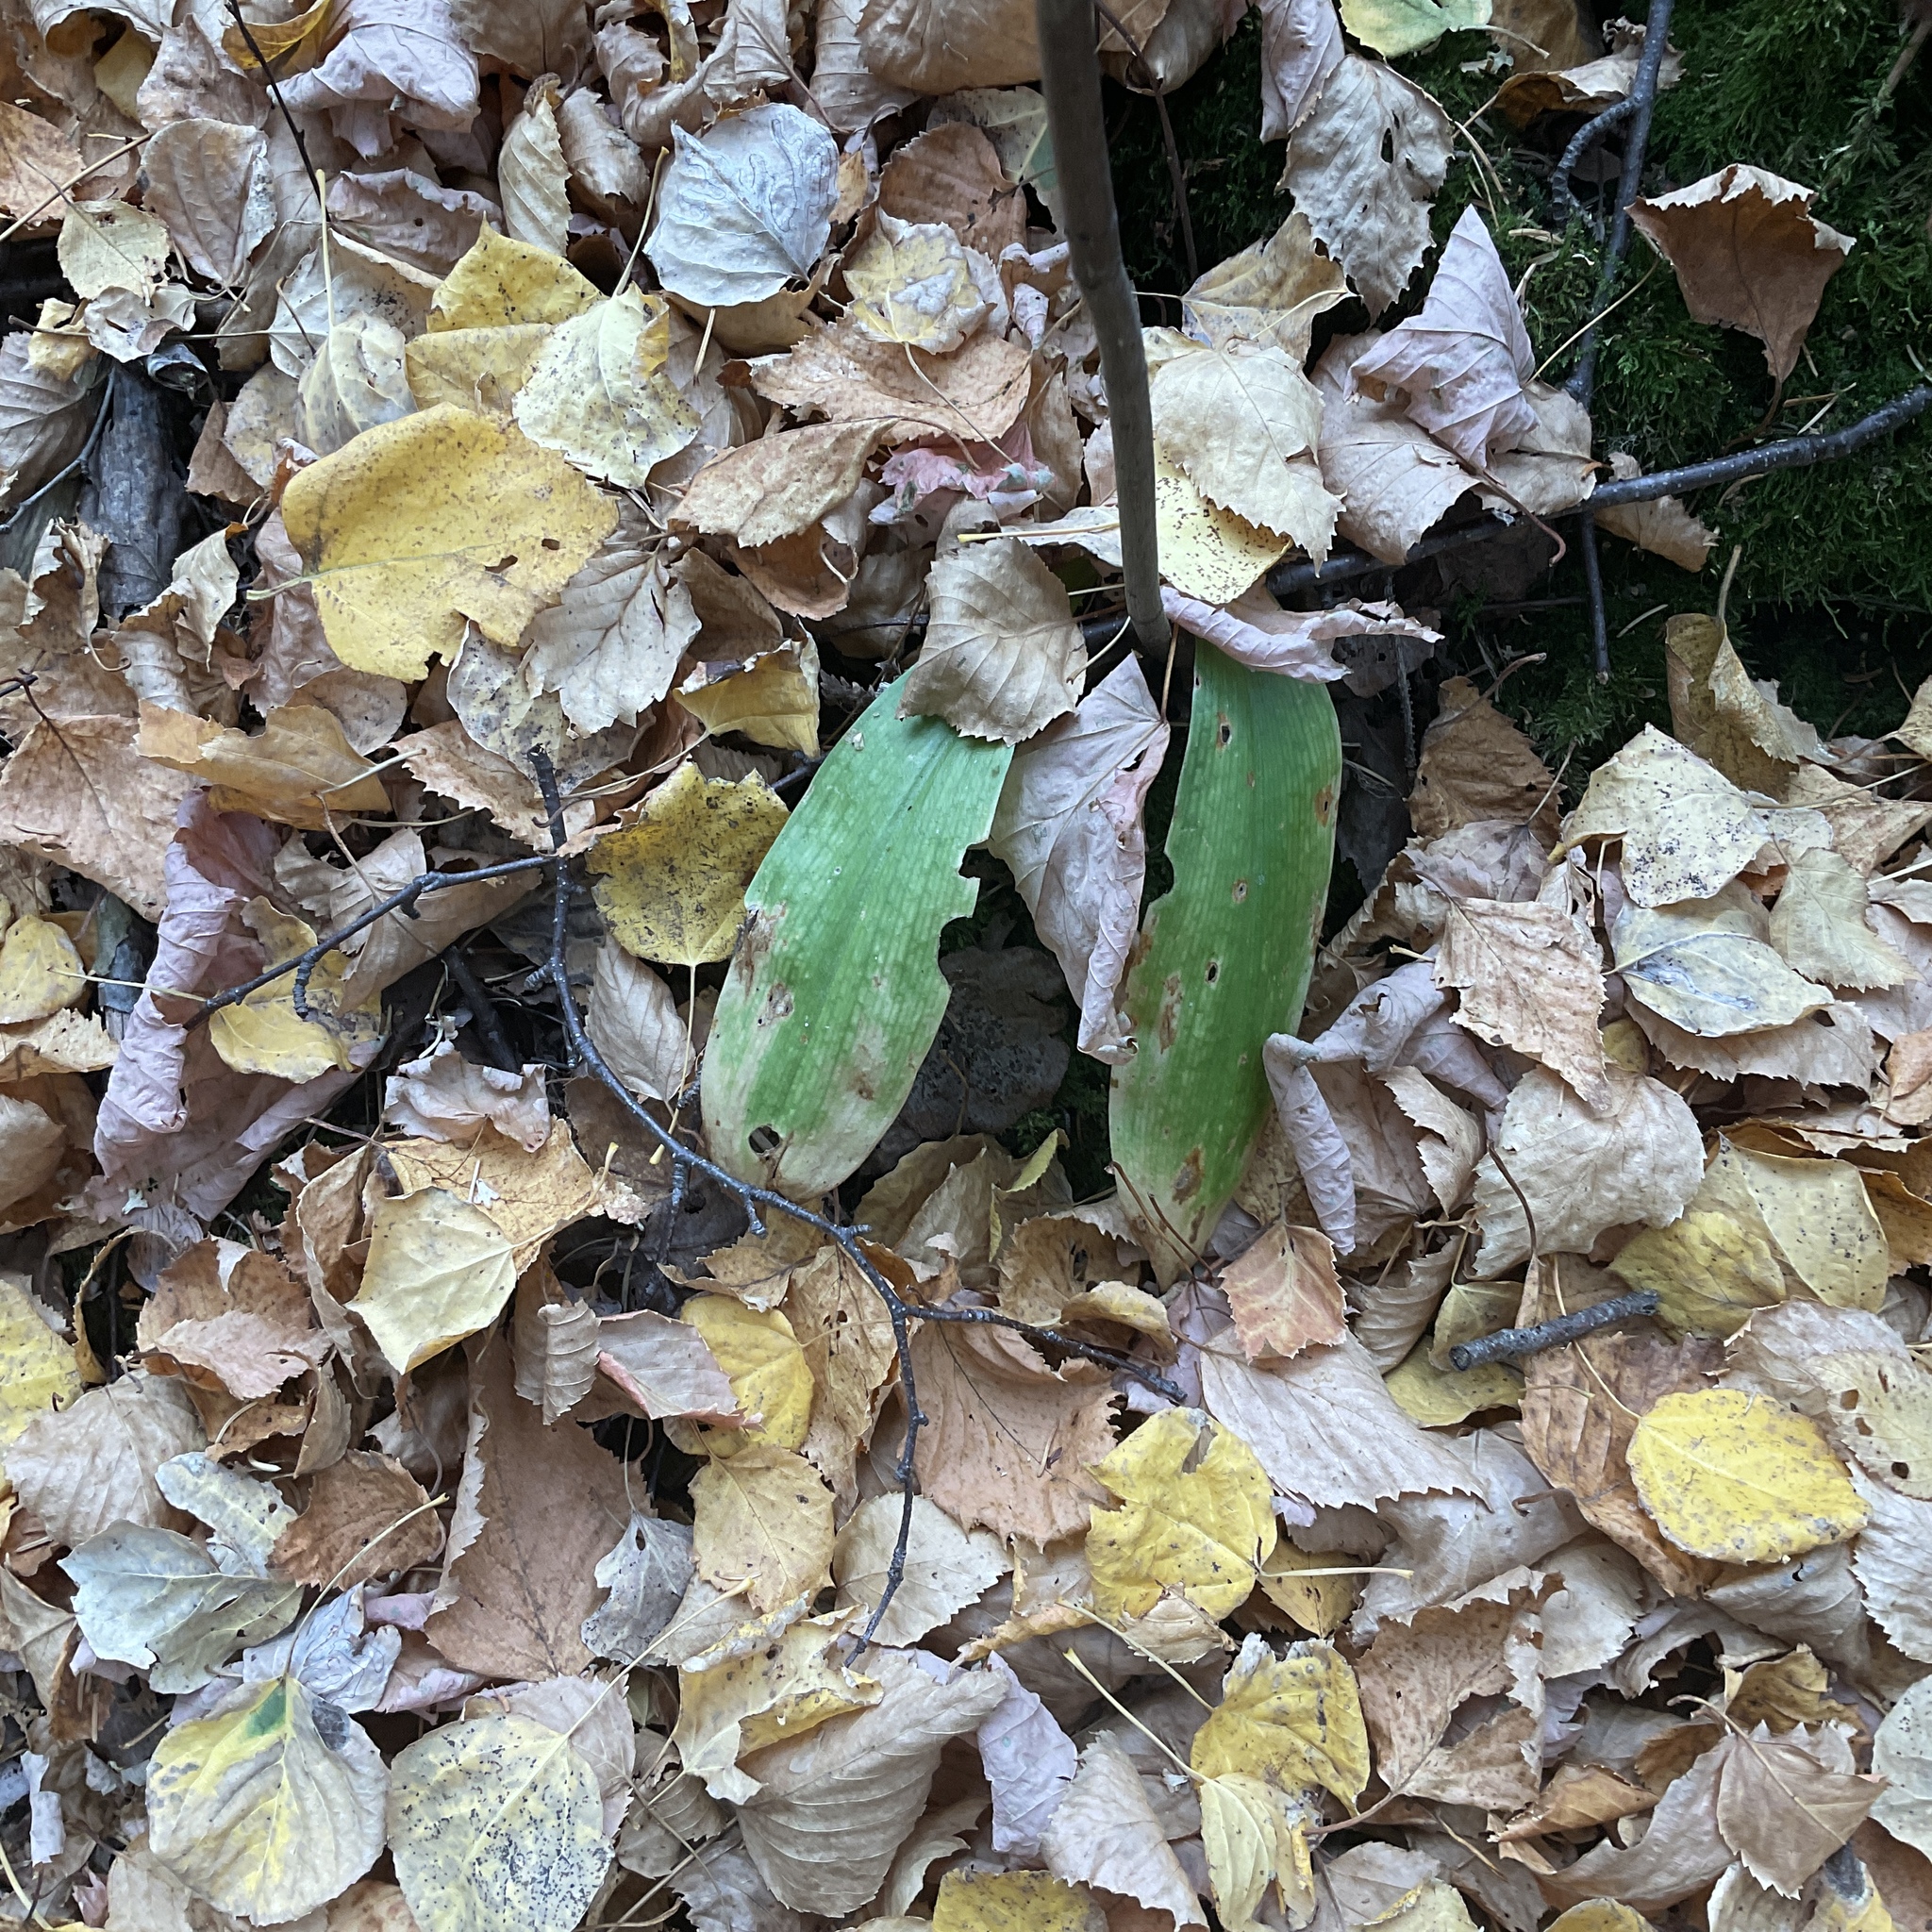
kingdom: Plantae
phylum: Tracheophyta
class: Liliopsida
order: Liliales
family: Liliaceae
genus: Clintonia
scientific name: Clintonia uniflora
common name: Queen's cup
